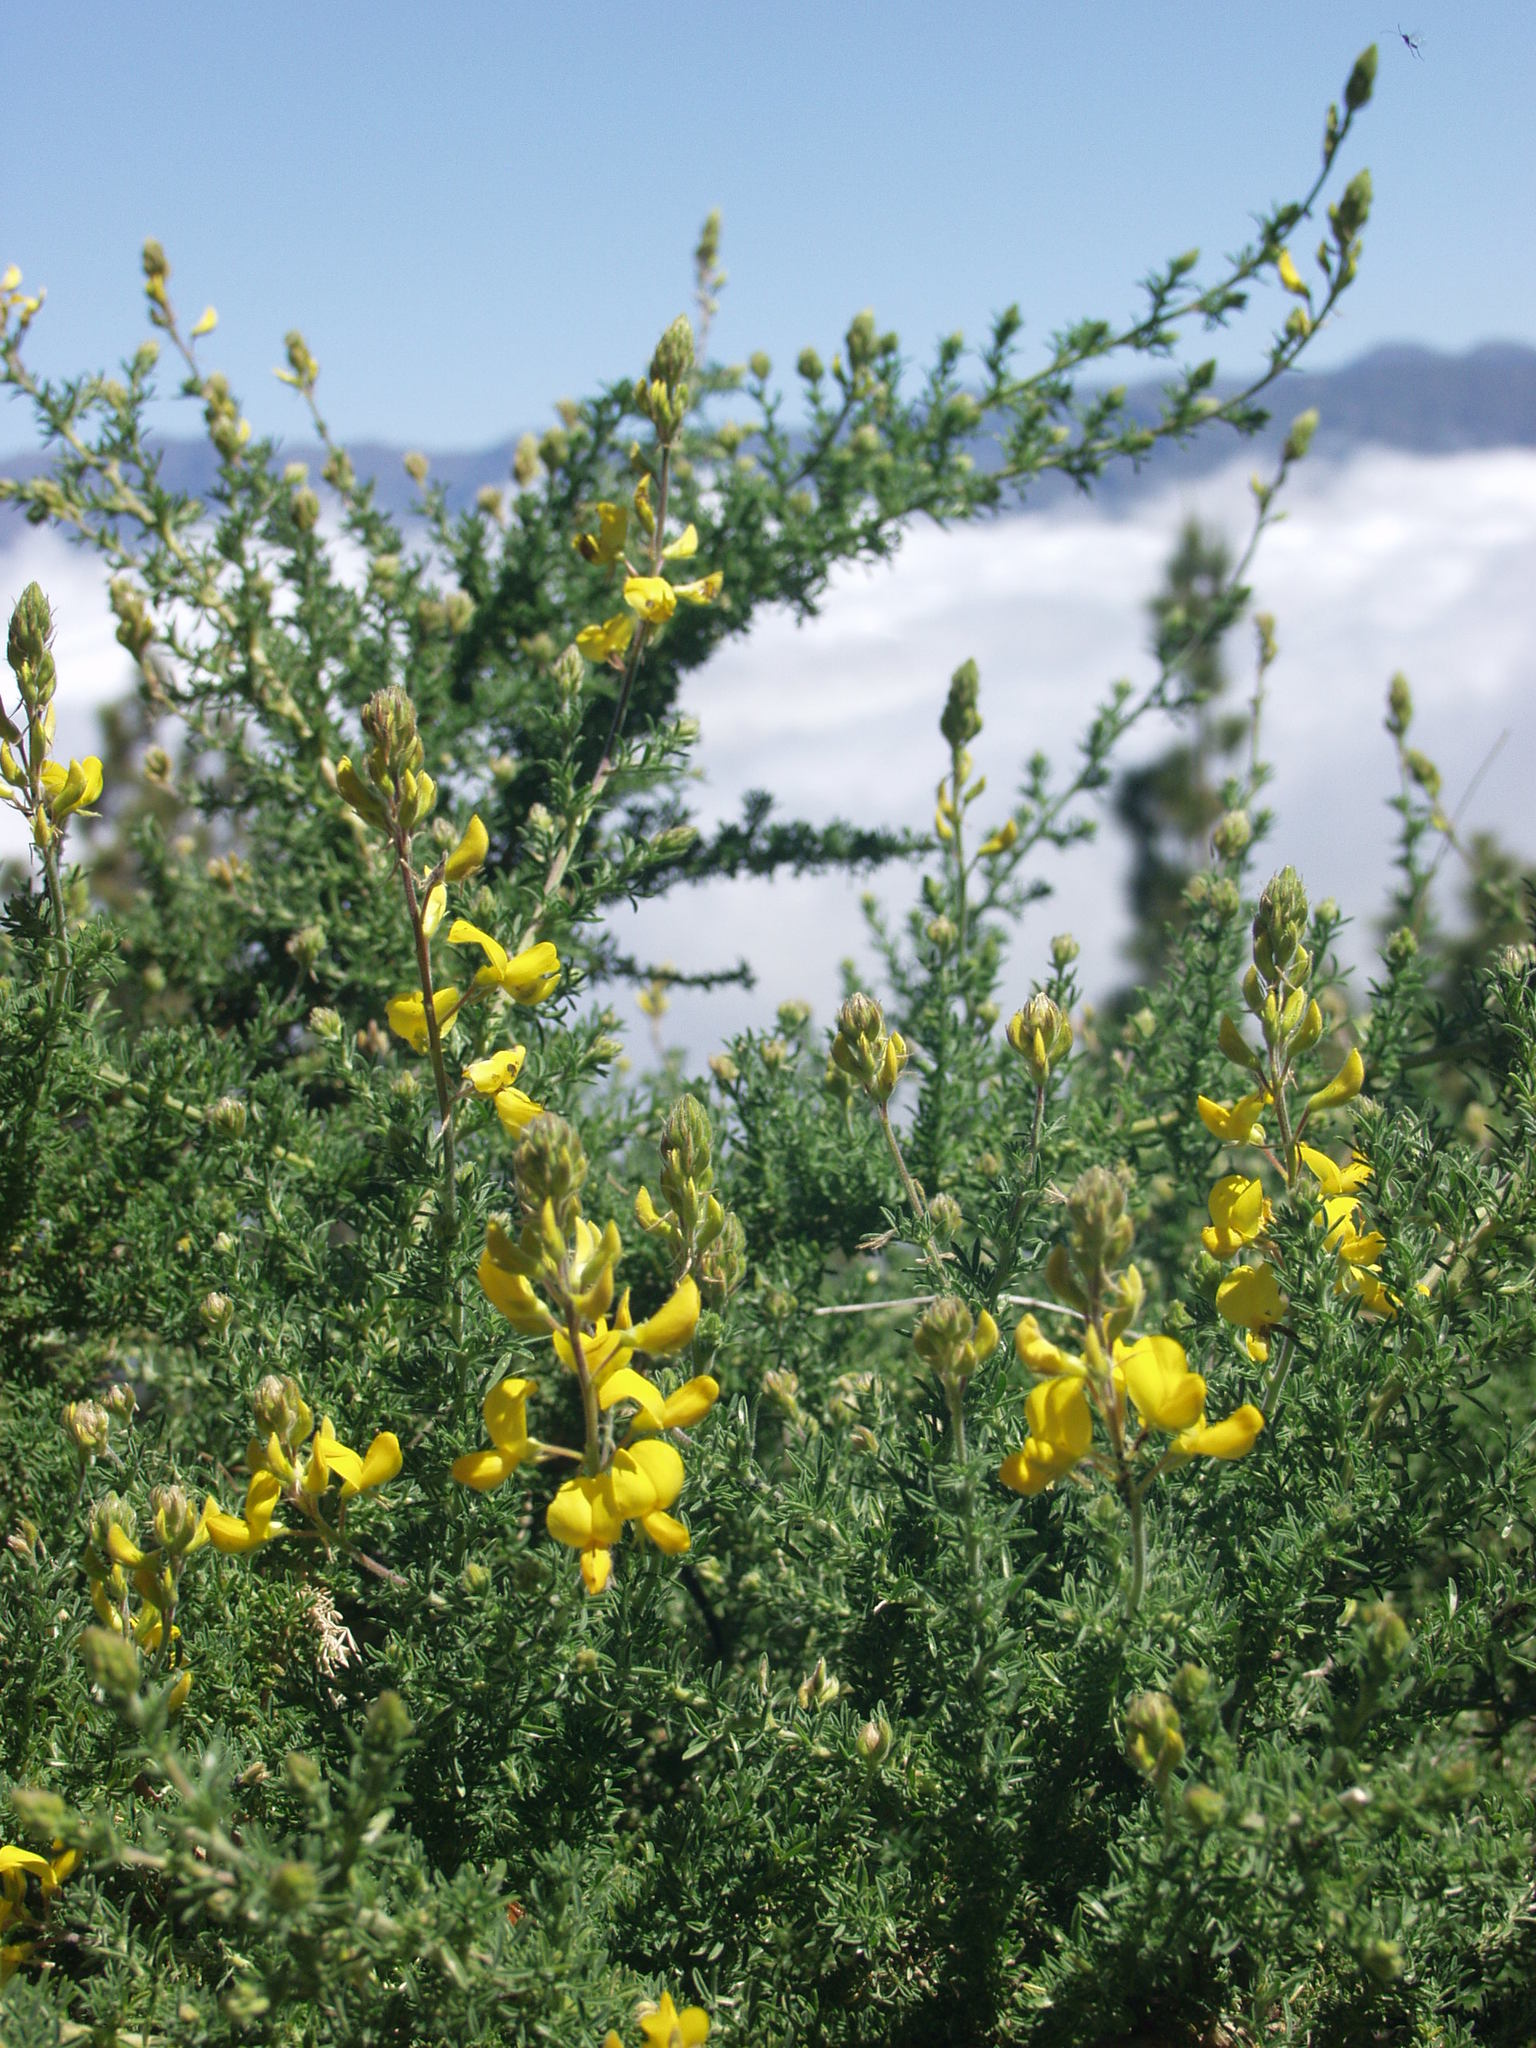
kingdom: Plantae
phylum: Tracheophyta
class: Magnoliopsida
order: Fabales
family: Fabaceae
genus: Adenocarpus
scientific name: Adenocarpus foliolosus
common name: Canary island flatpod
